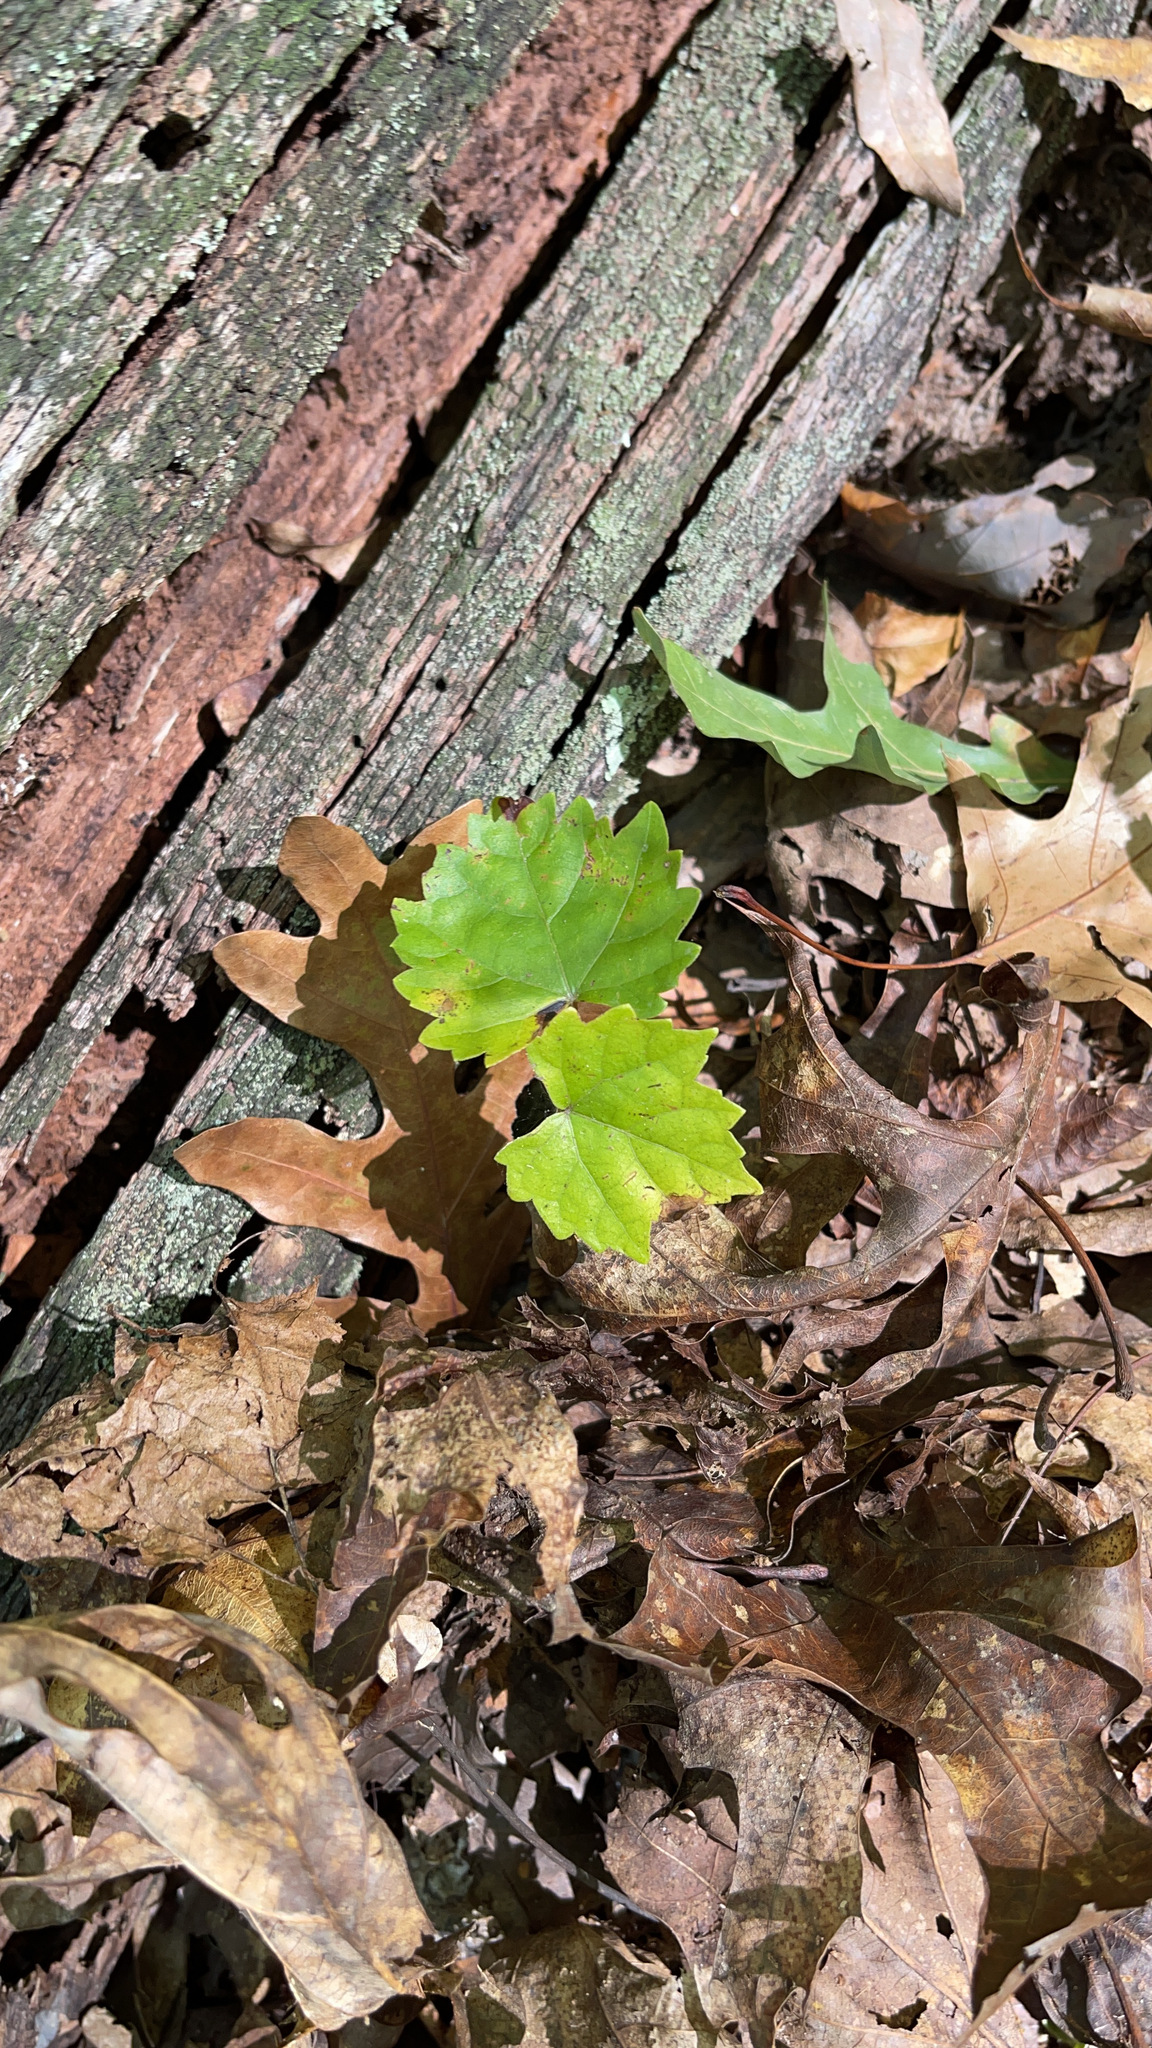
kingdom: Plantae
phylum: Tracheophyta
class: Magnoliopsida
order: Vitales
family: Vitaceae
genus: Vitis
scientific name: Vitis rotundifolia
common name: Muscadine grape
